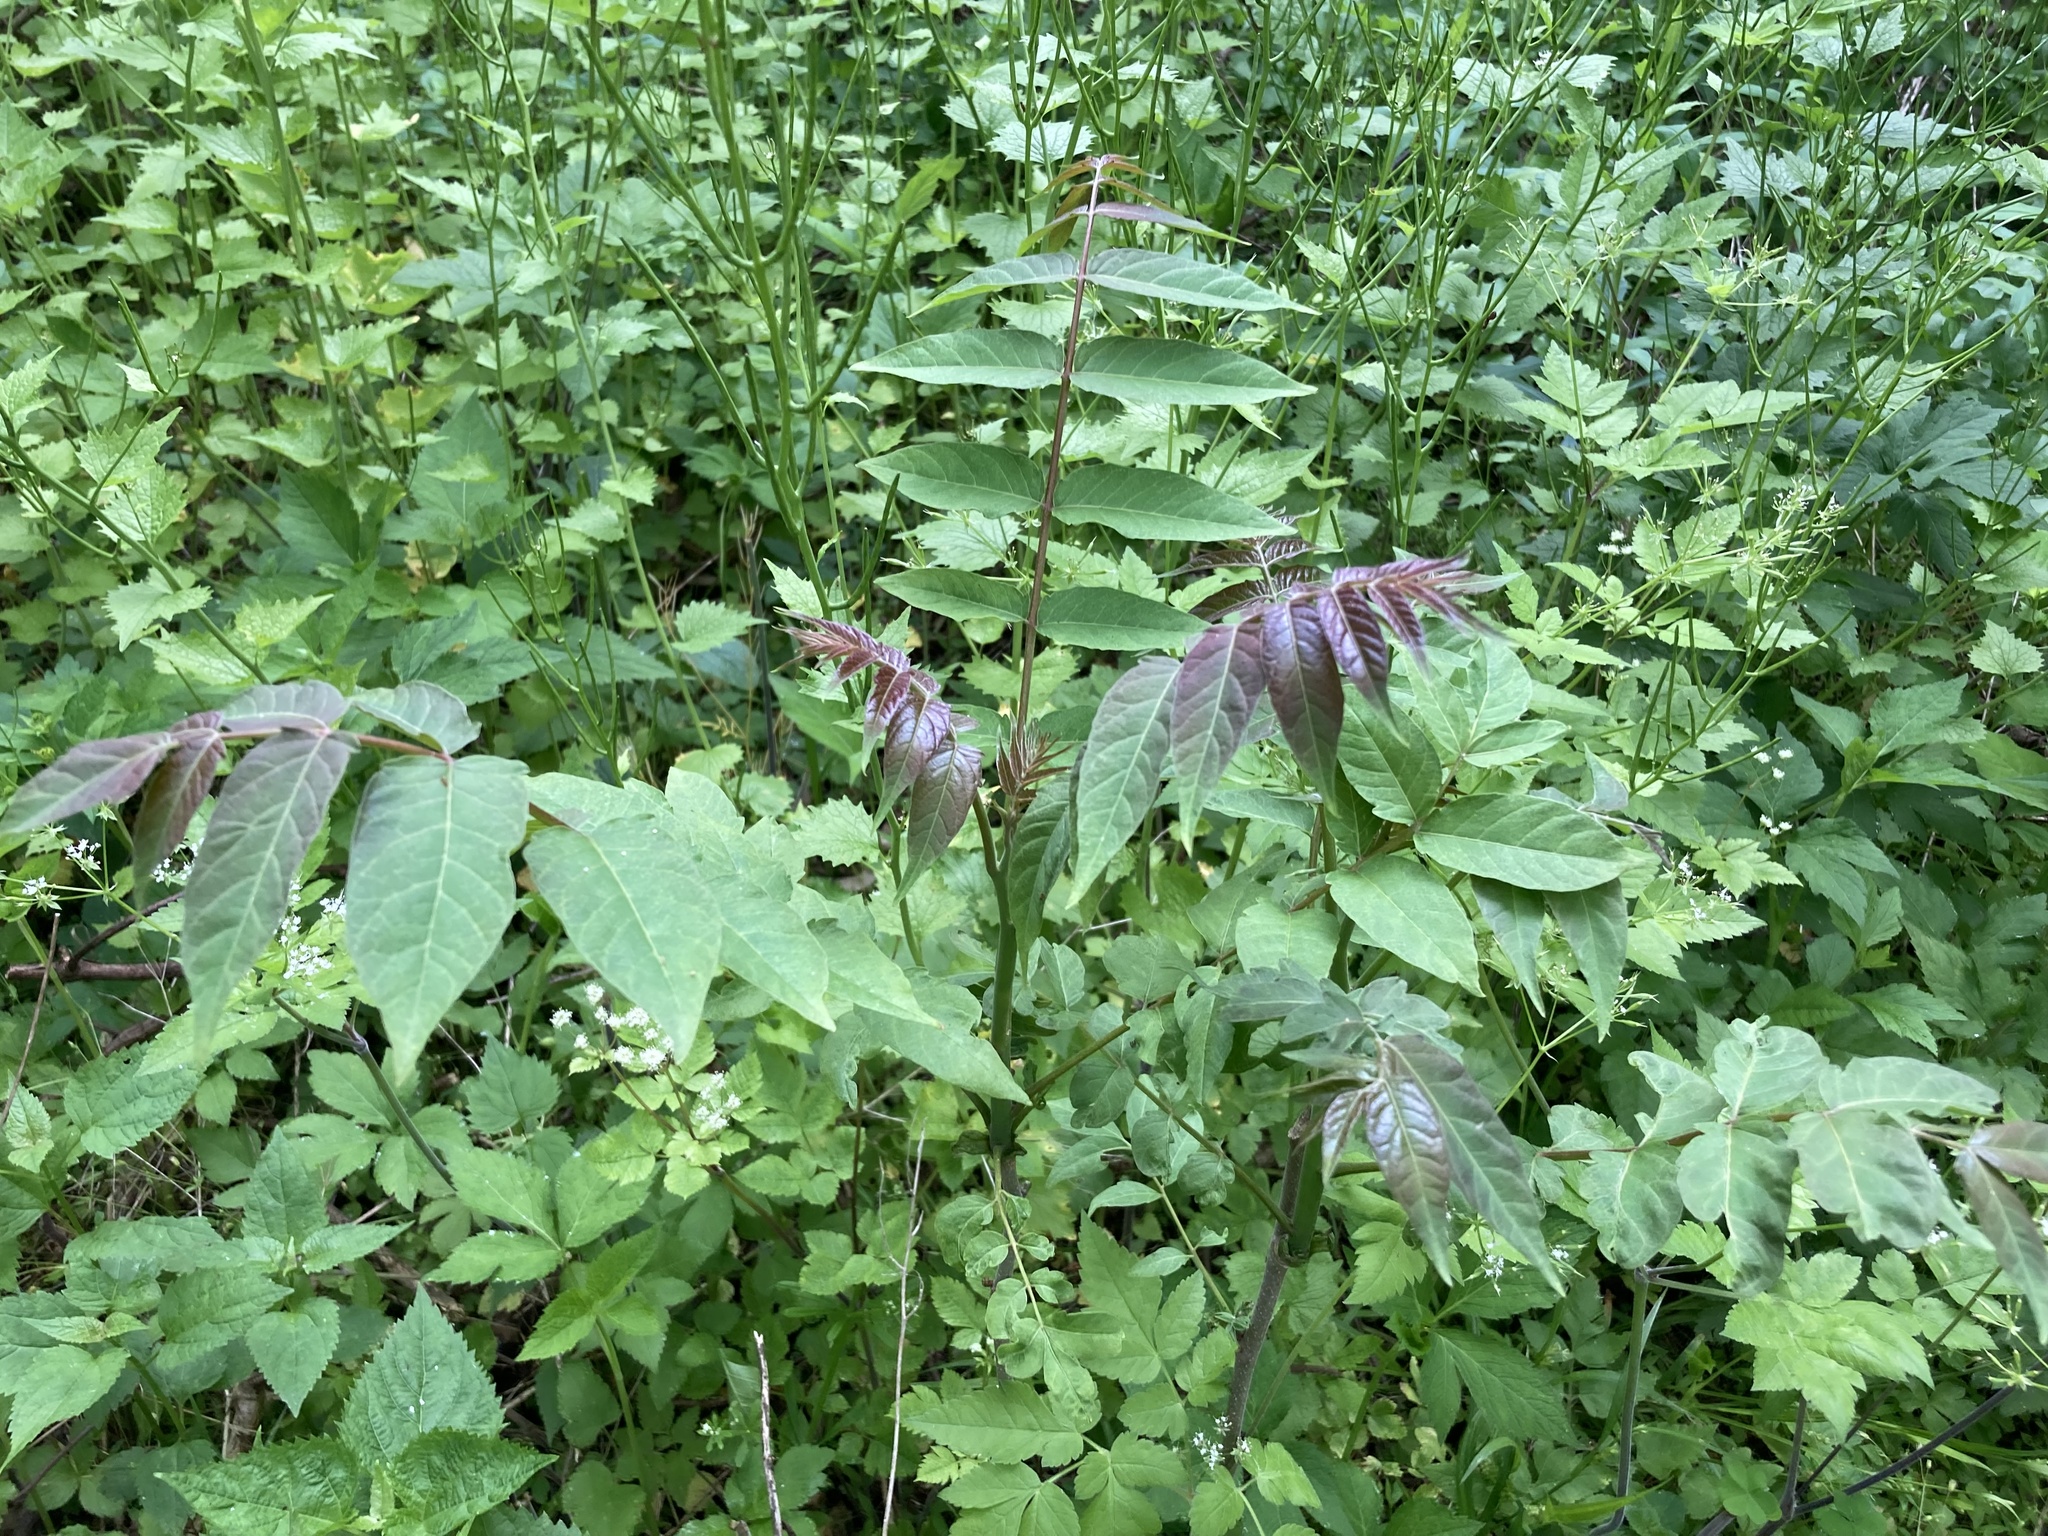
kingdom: Plantae
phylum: Tracheophyta
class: Magnoliopsida
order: Sapindales
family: Simaroubaceae
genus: Ailanthus
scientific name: Ailanthus altissima
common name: Tree-of-heaven
